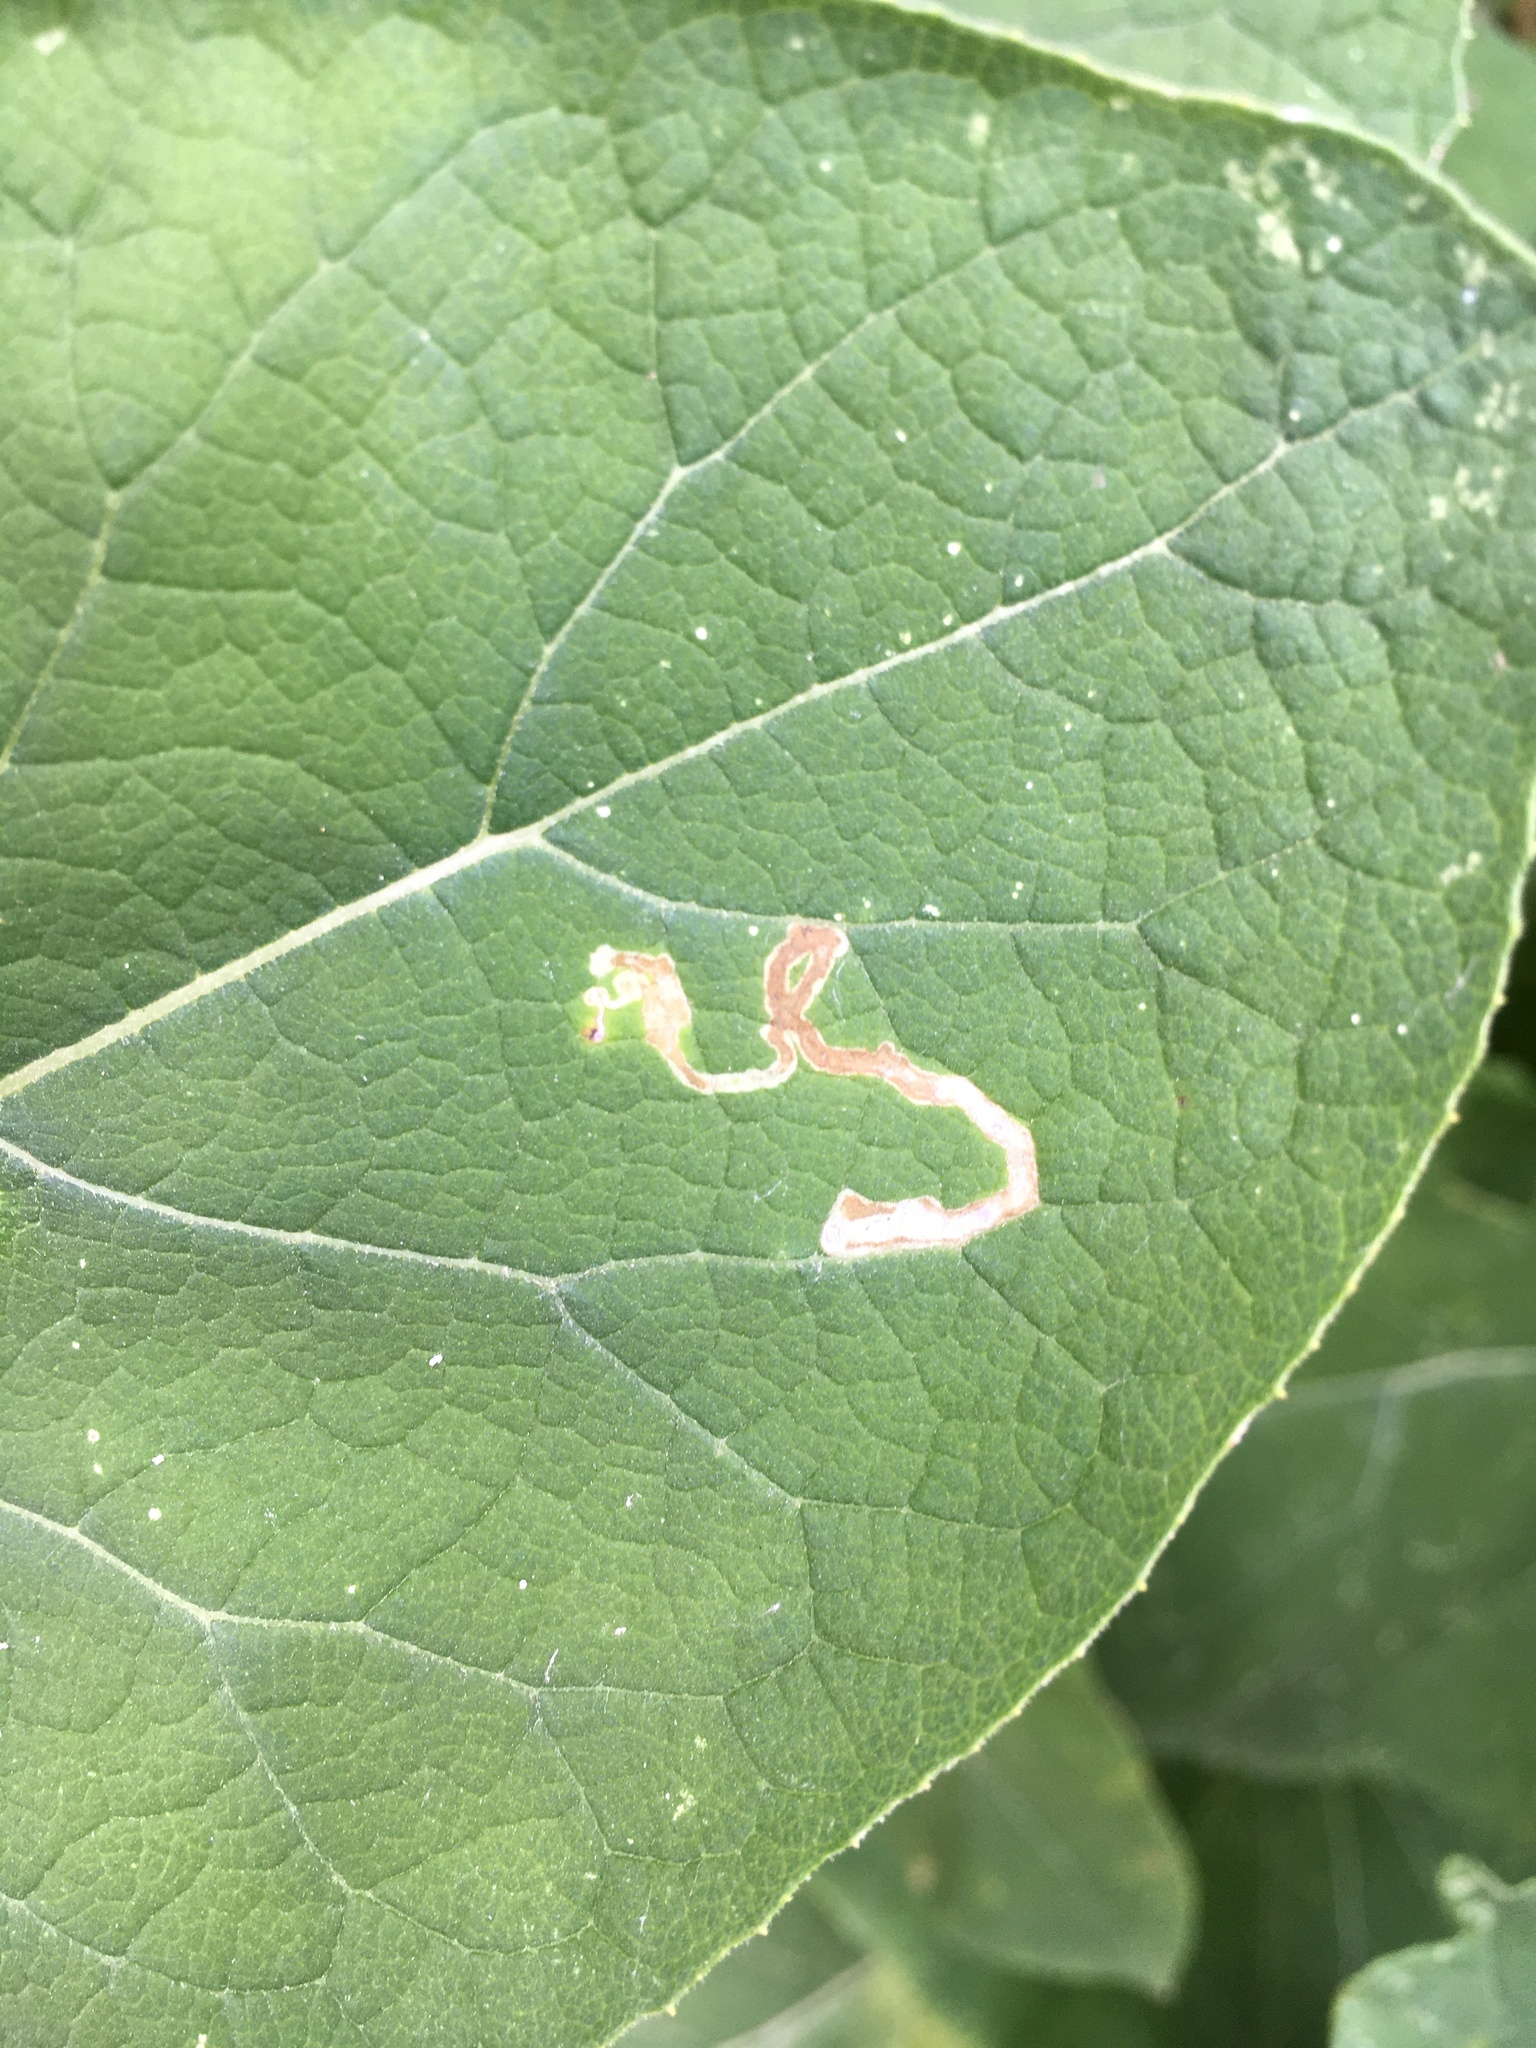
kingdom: Animalia
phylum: Arthropoda
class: Insecta
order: Diptera
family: Agromyzidae
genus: Liriomyza
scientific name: Liriomyza arctii
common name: Burdock leafminer
